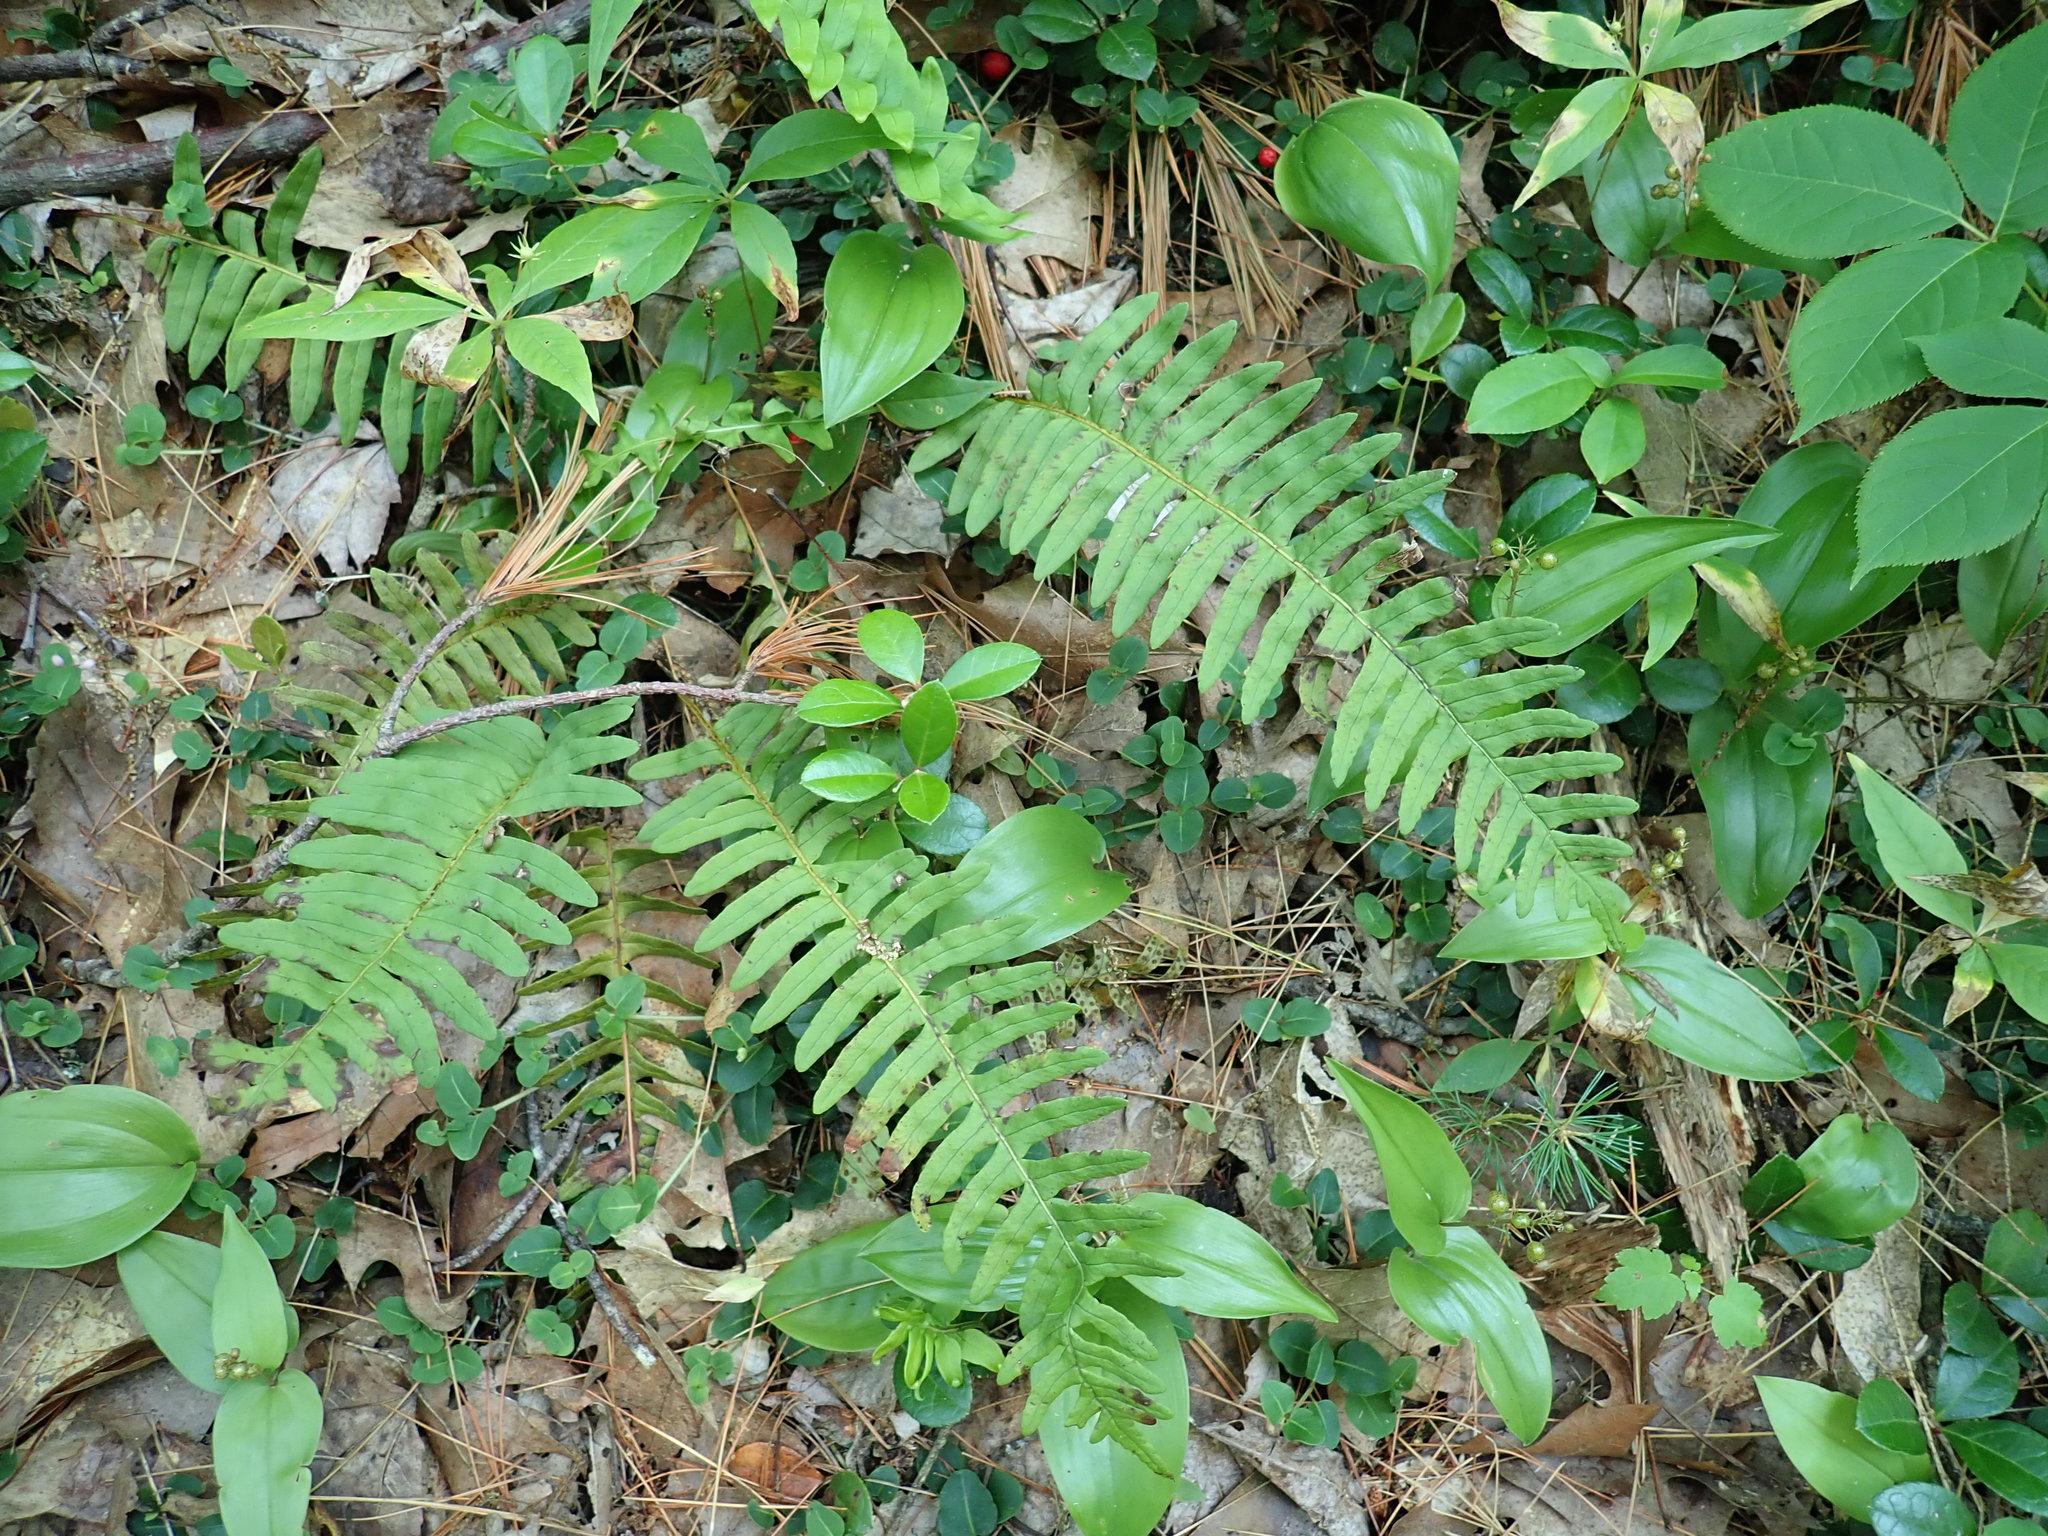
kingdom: Plantae
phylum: Tracheophyta
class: Polypodiopsida
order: Polypodiales
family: Polypodiaceae
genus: Polypodium
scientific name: Polypodium
